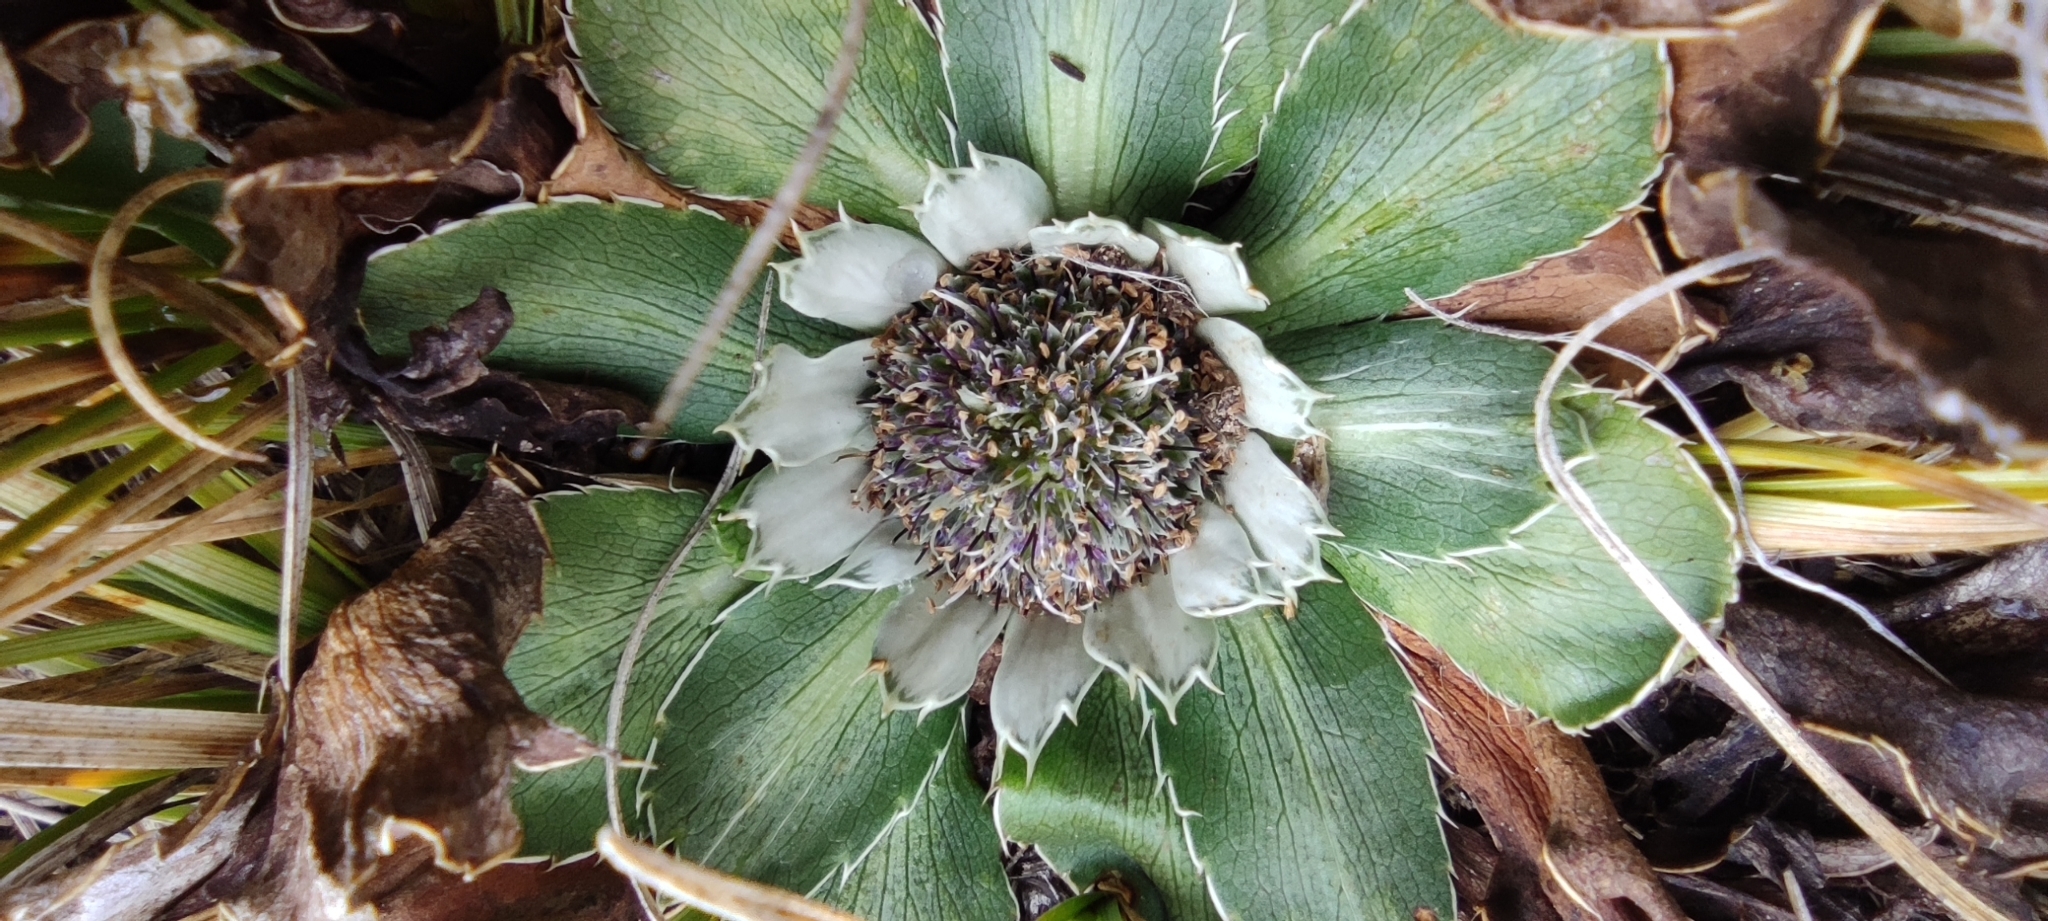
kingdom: Plantae
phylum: Tracheophyta
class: Magnoliopsida
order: Apiales
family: Apiaceae
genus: Eryngium
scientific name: Eryngium humile
